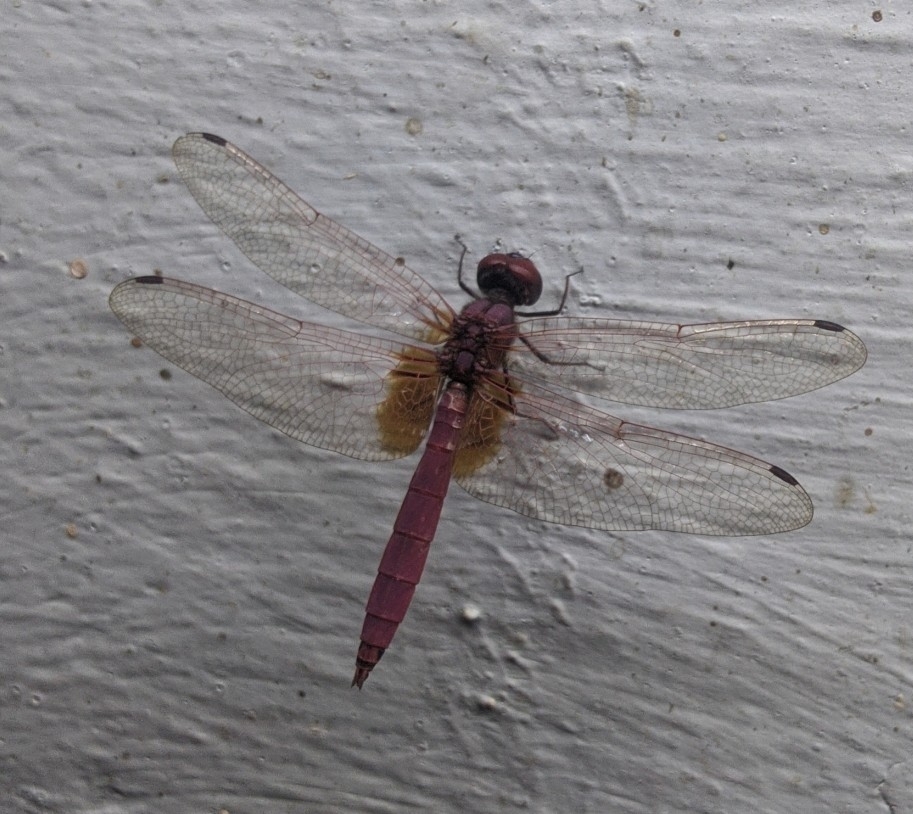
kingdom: Animalia
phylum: Arthropoda
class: Insecta
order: Odonata
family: Libellulidae
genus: Trithemis
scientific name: Trithemis aurora
